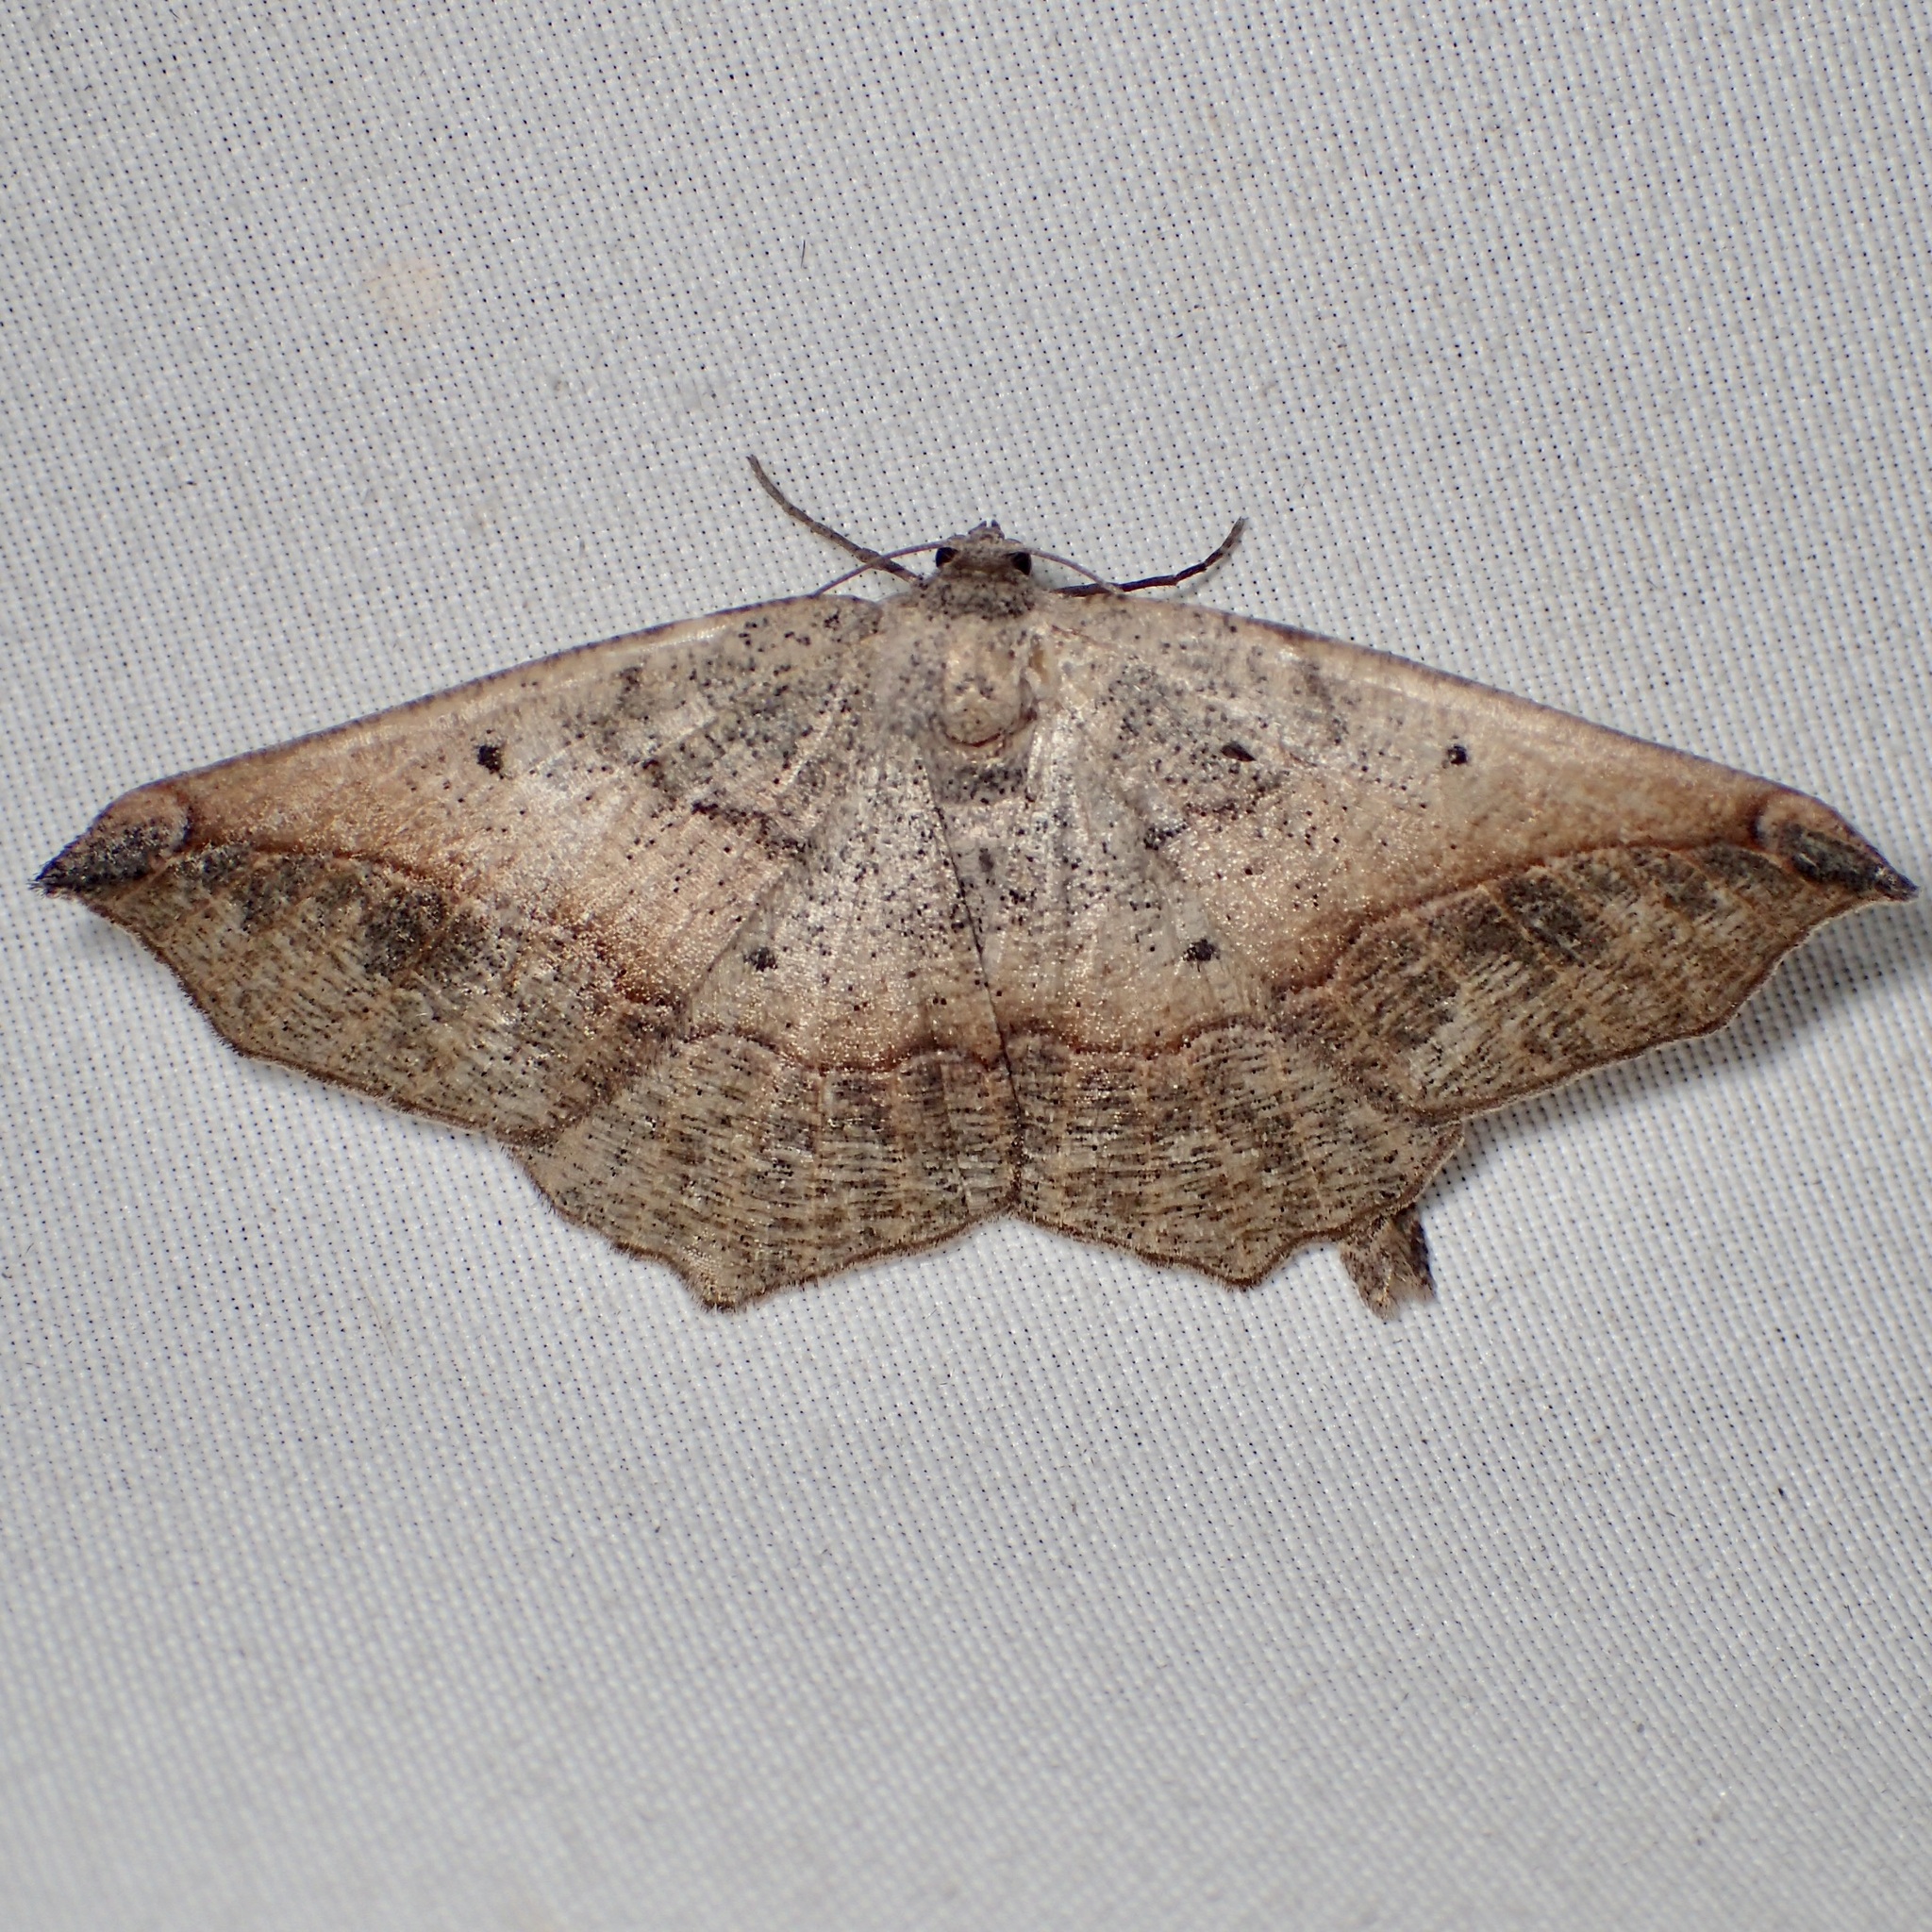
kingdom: Animalia
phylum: Arthropoda
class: Insecta
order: Lepidoptera
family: Geometridae
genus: Prochoerodes
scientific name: Prochoerodes forficaria
